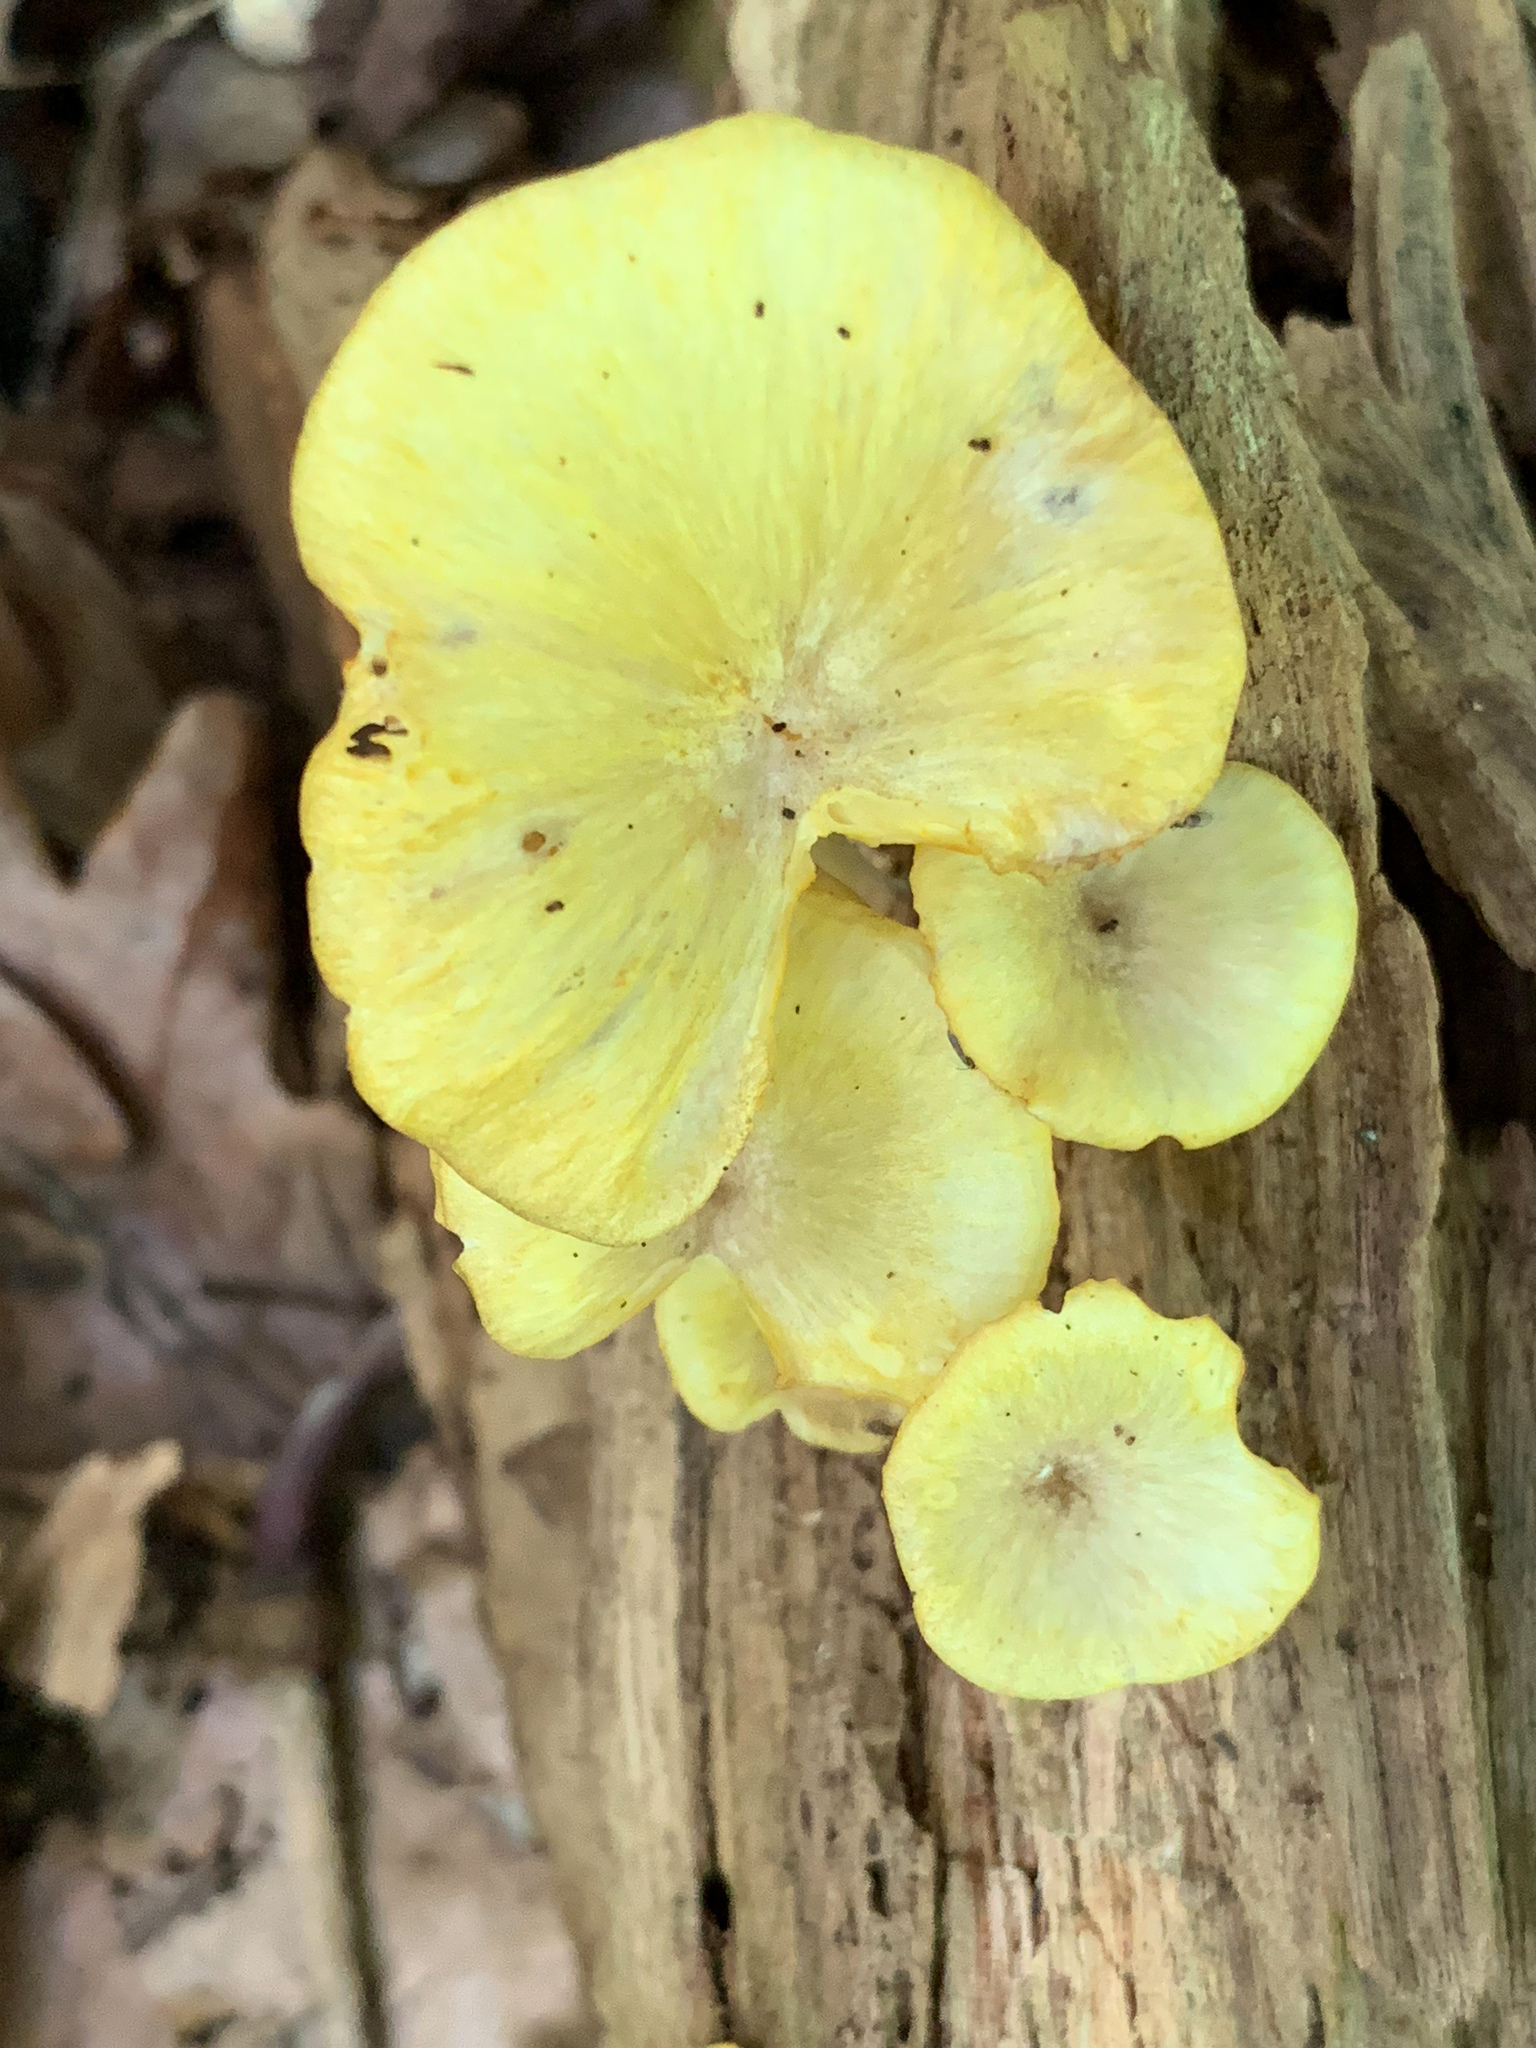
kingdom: Fungi
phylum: Basidiomycota
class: Agaricomycetes
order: Agaricales
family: Marasmiaceae
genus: Gerronema
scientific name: Gerronema strombodes
